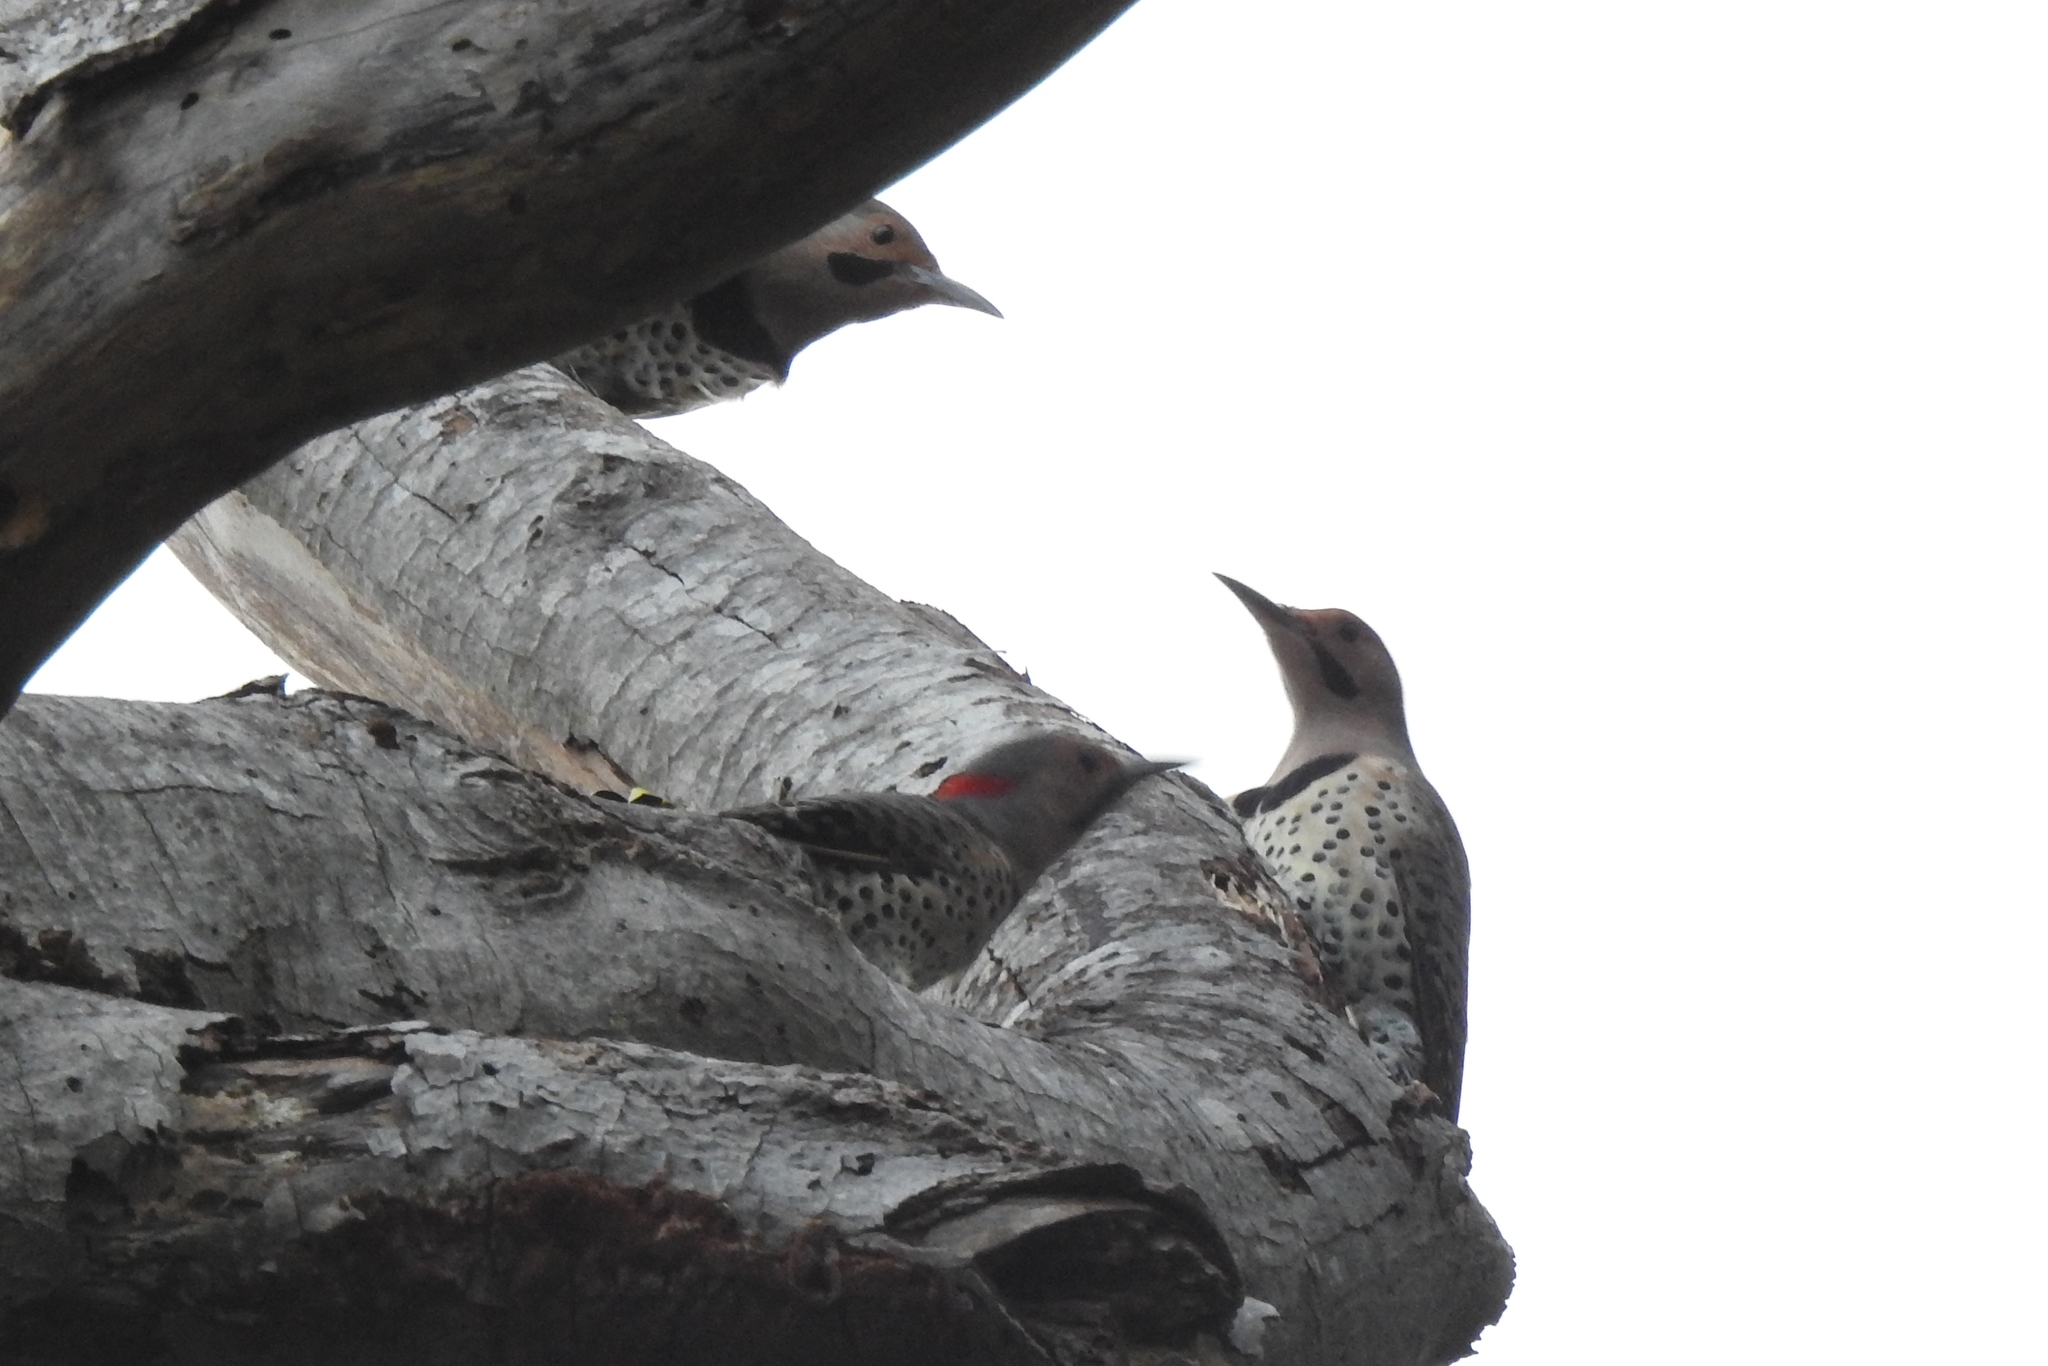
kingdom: Animalia
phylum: Chordata
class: Aves
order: Piciformes
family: Picidae
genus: Colaptes
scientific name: Colaptes auratus
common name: Northern flicker
